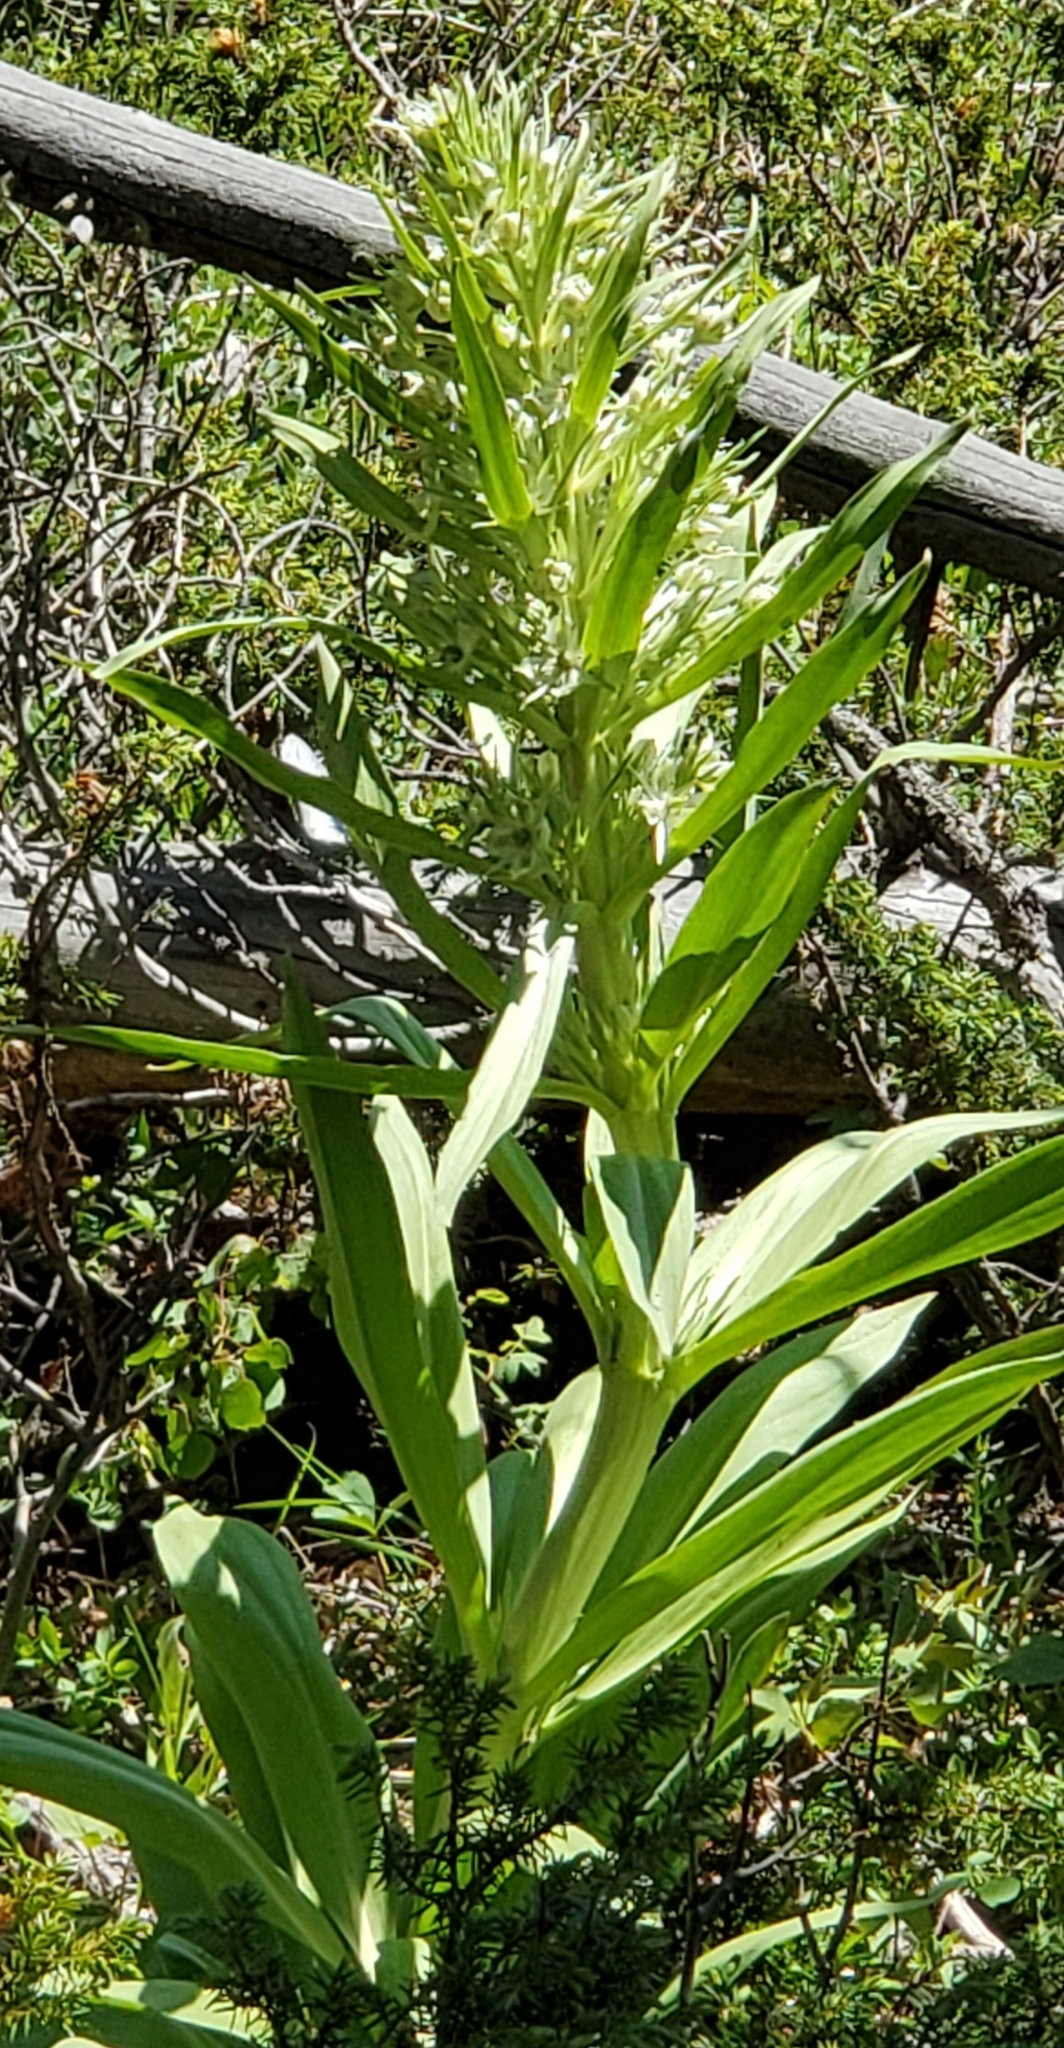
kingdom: Plantae
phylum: Tracheophyta
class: Magnoliopsida
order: Gentianales
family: Gentianaceae
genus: Frasera
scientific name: Frasera speciosa
